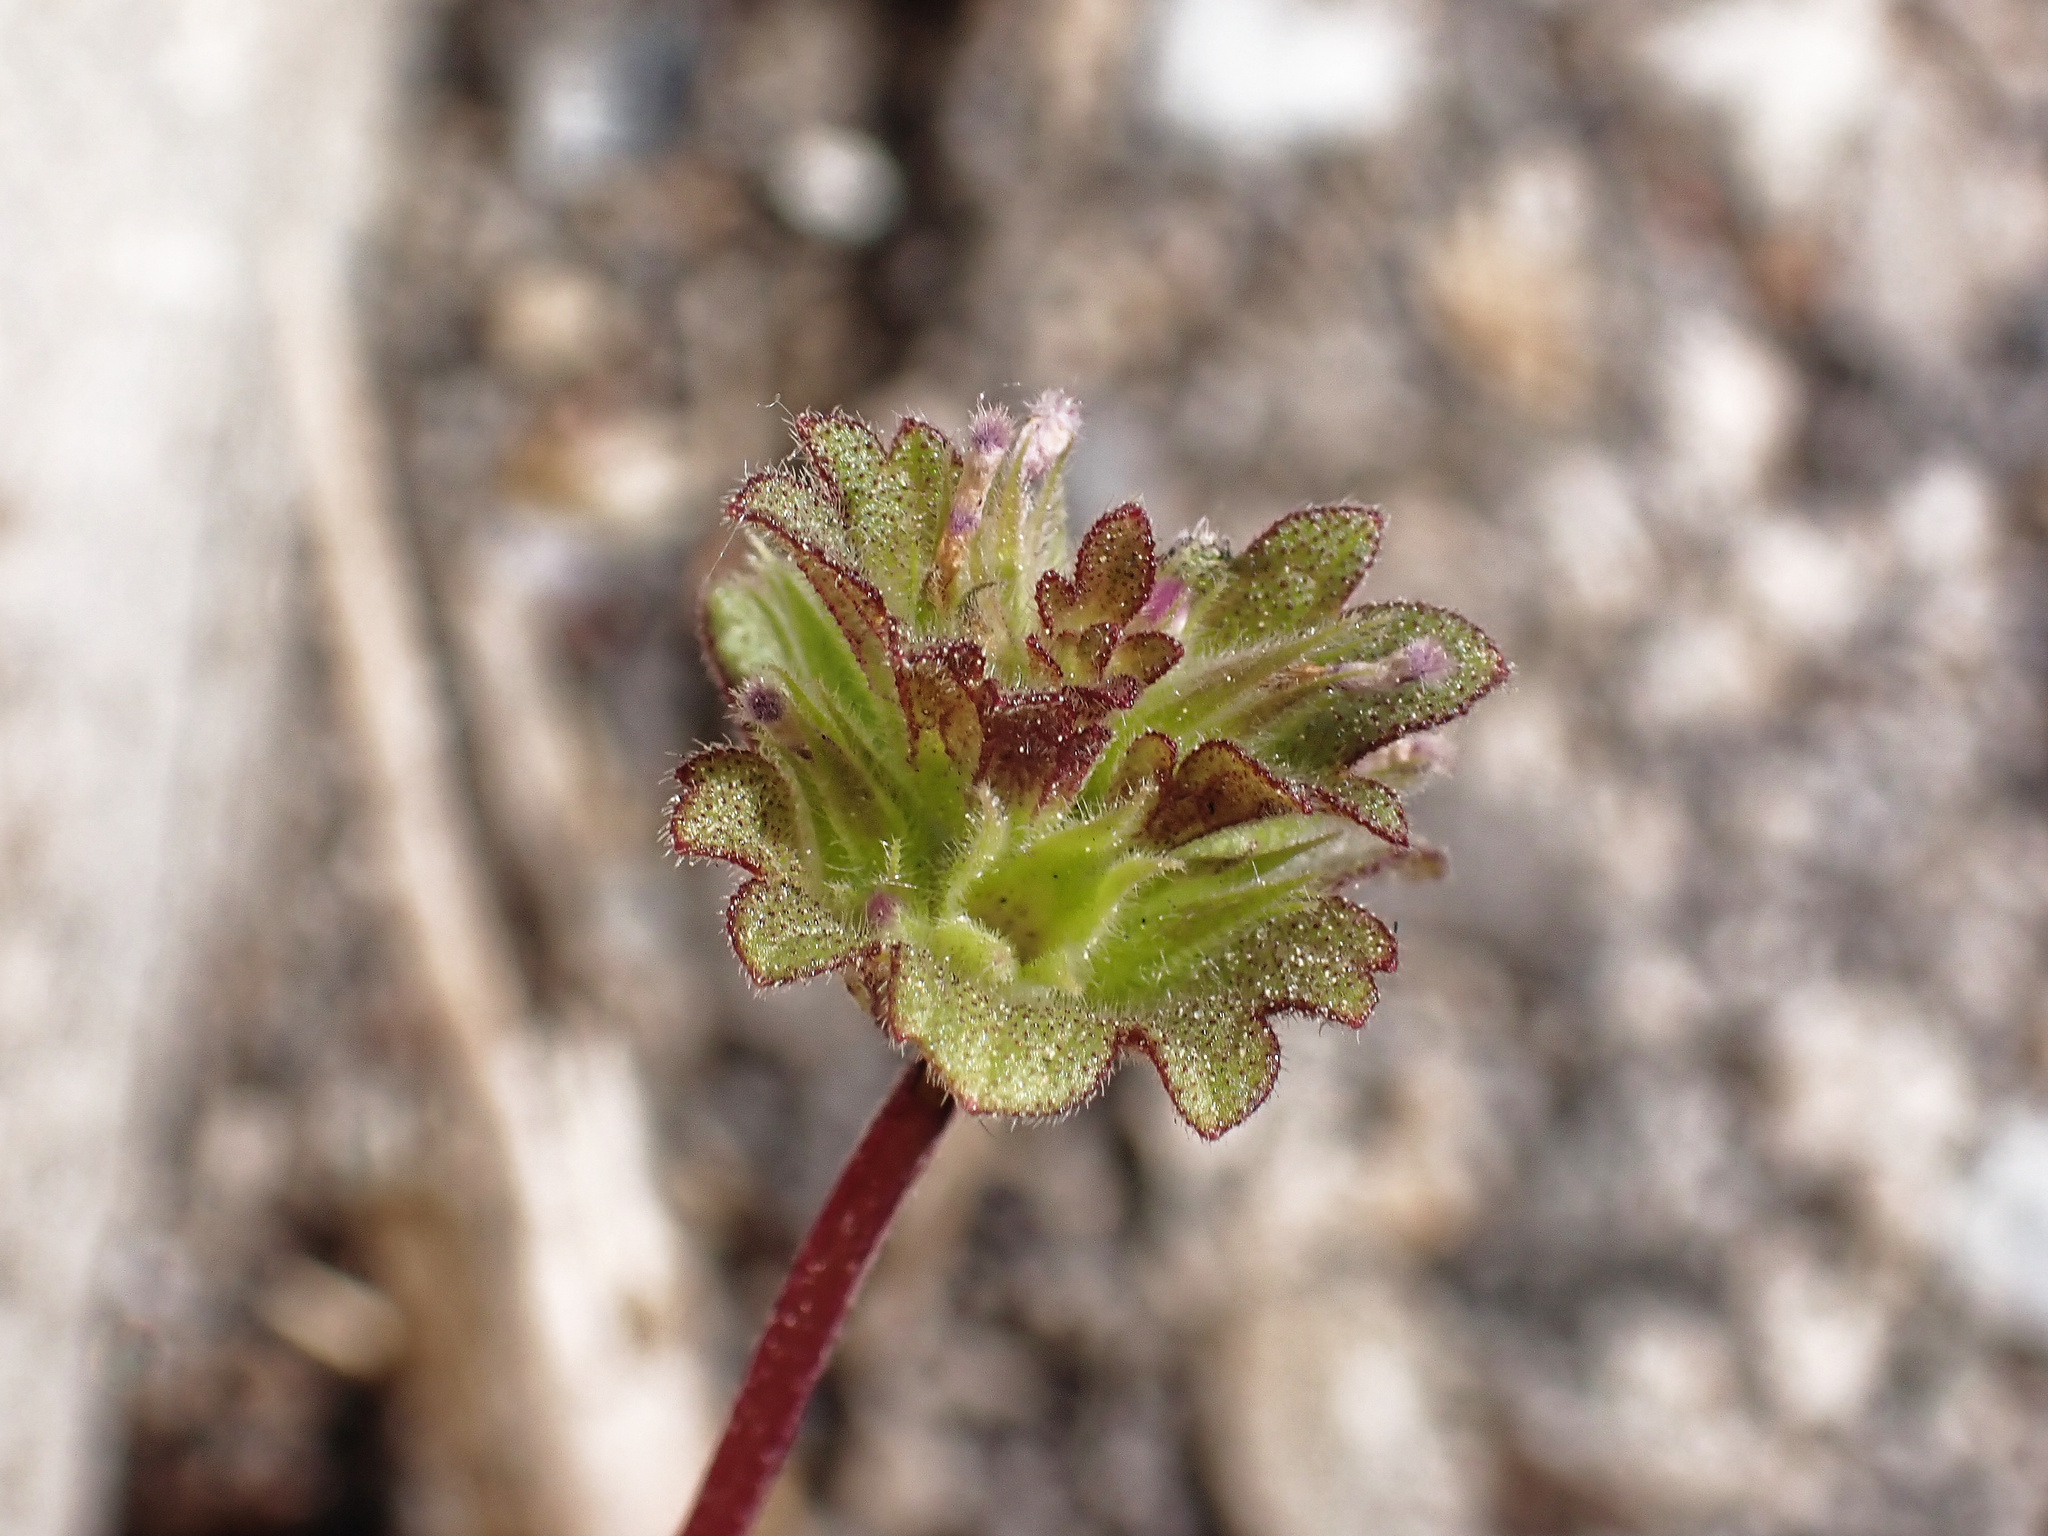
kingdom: Plantae
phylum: Tracheophyta
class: Magnoliopsida
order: Lamiales
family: Lamiaceae
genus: Lamium
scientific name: Lamium amplexicaule
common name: Henbit dead-nettle
